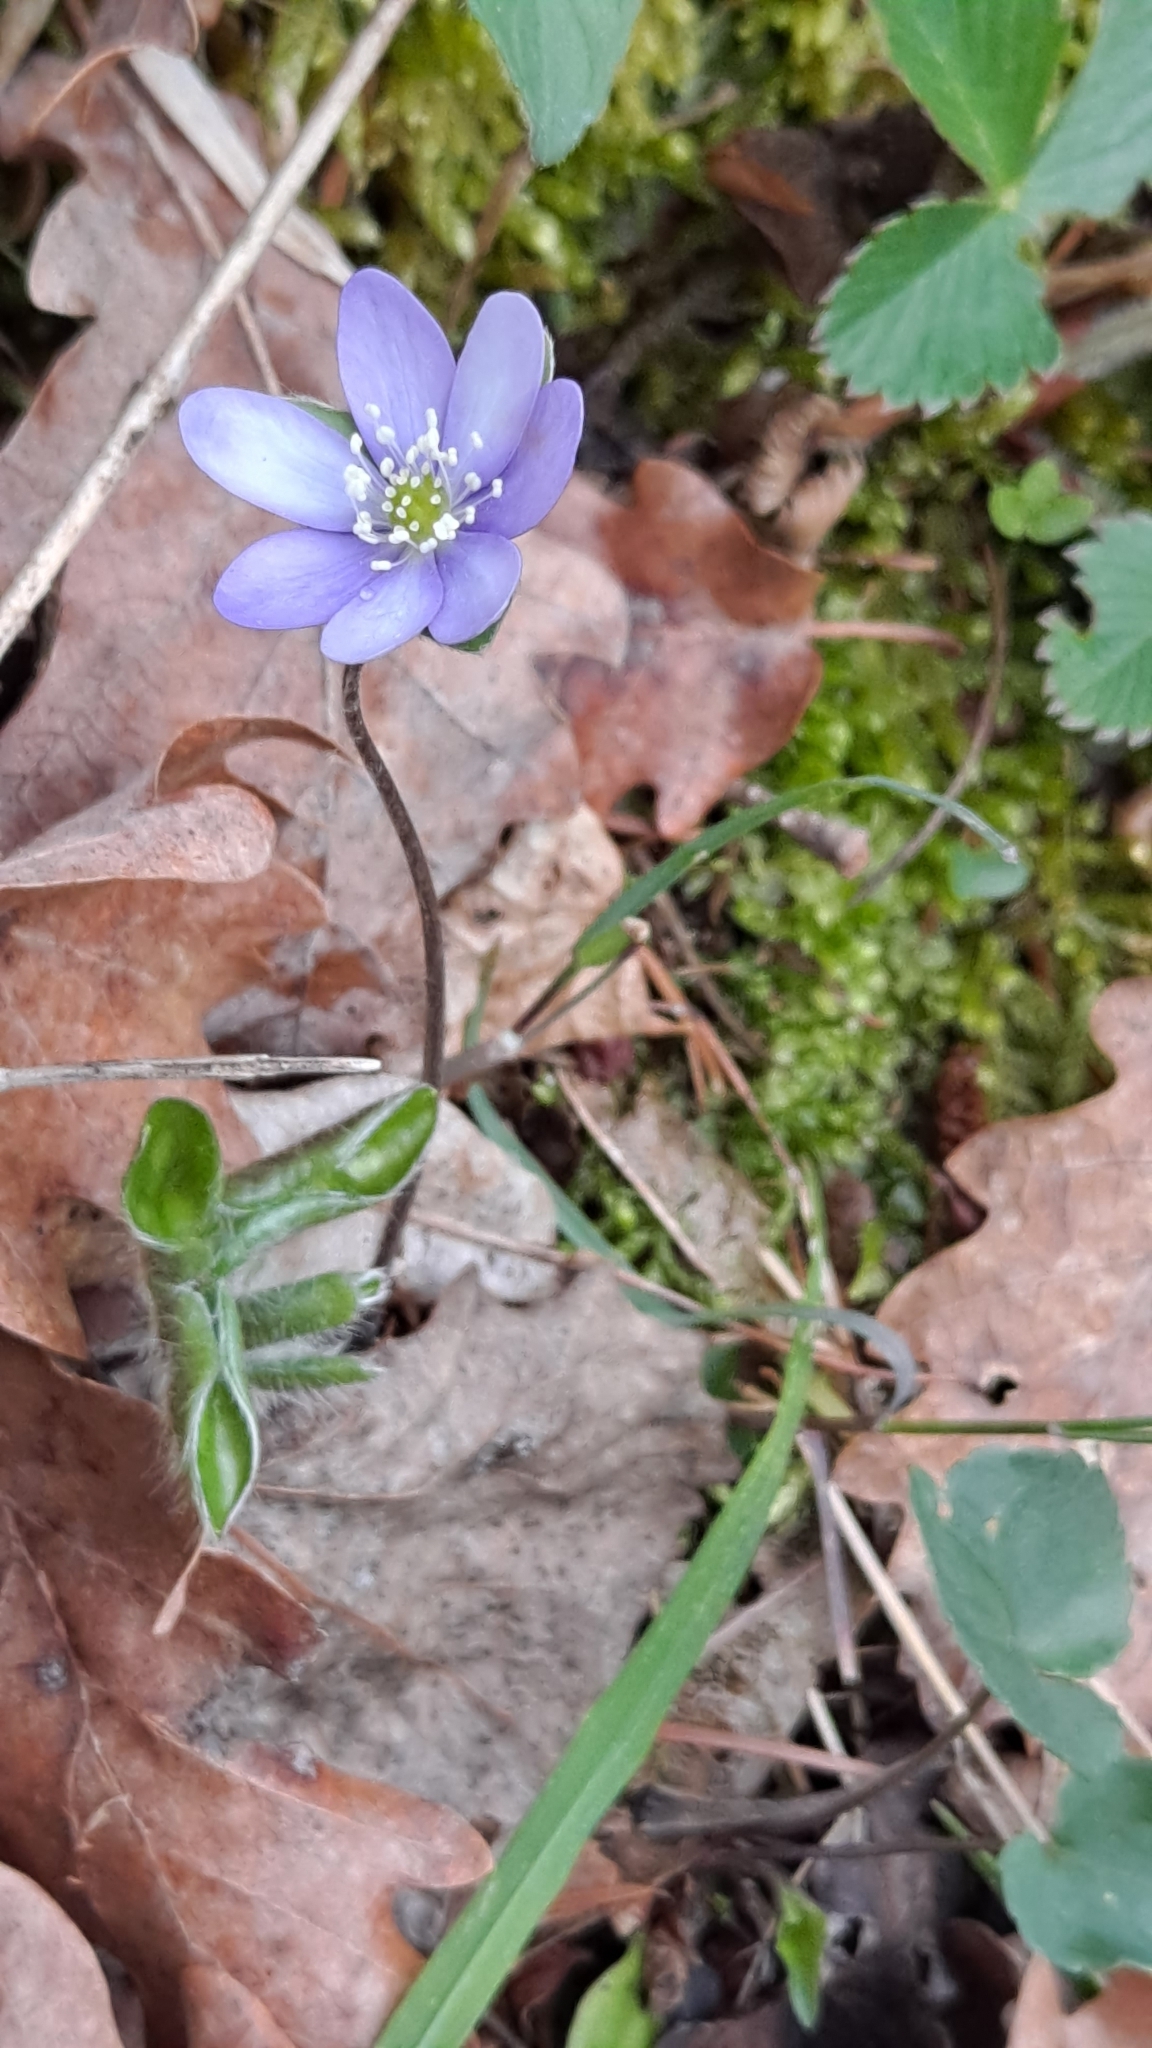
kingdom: Plantae
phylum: Tracheophyta
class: Magnoliopsida
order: Ranunculales
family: Ranunculaceae
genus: Hepatica
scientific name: Hepatica nobilis
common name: Liverleaf
